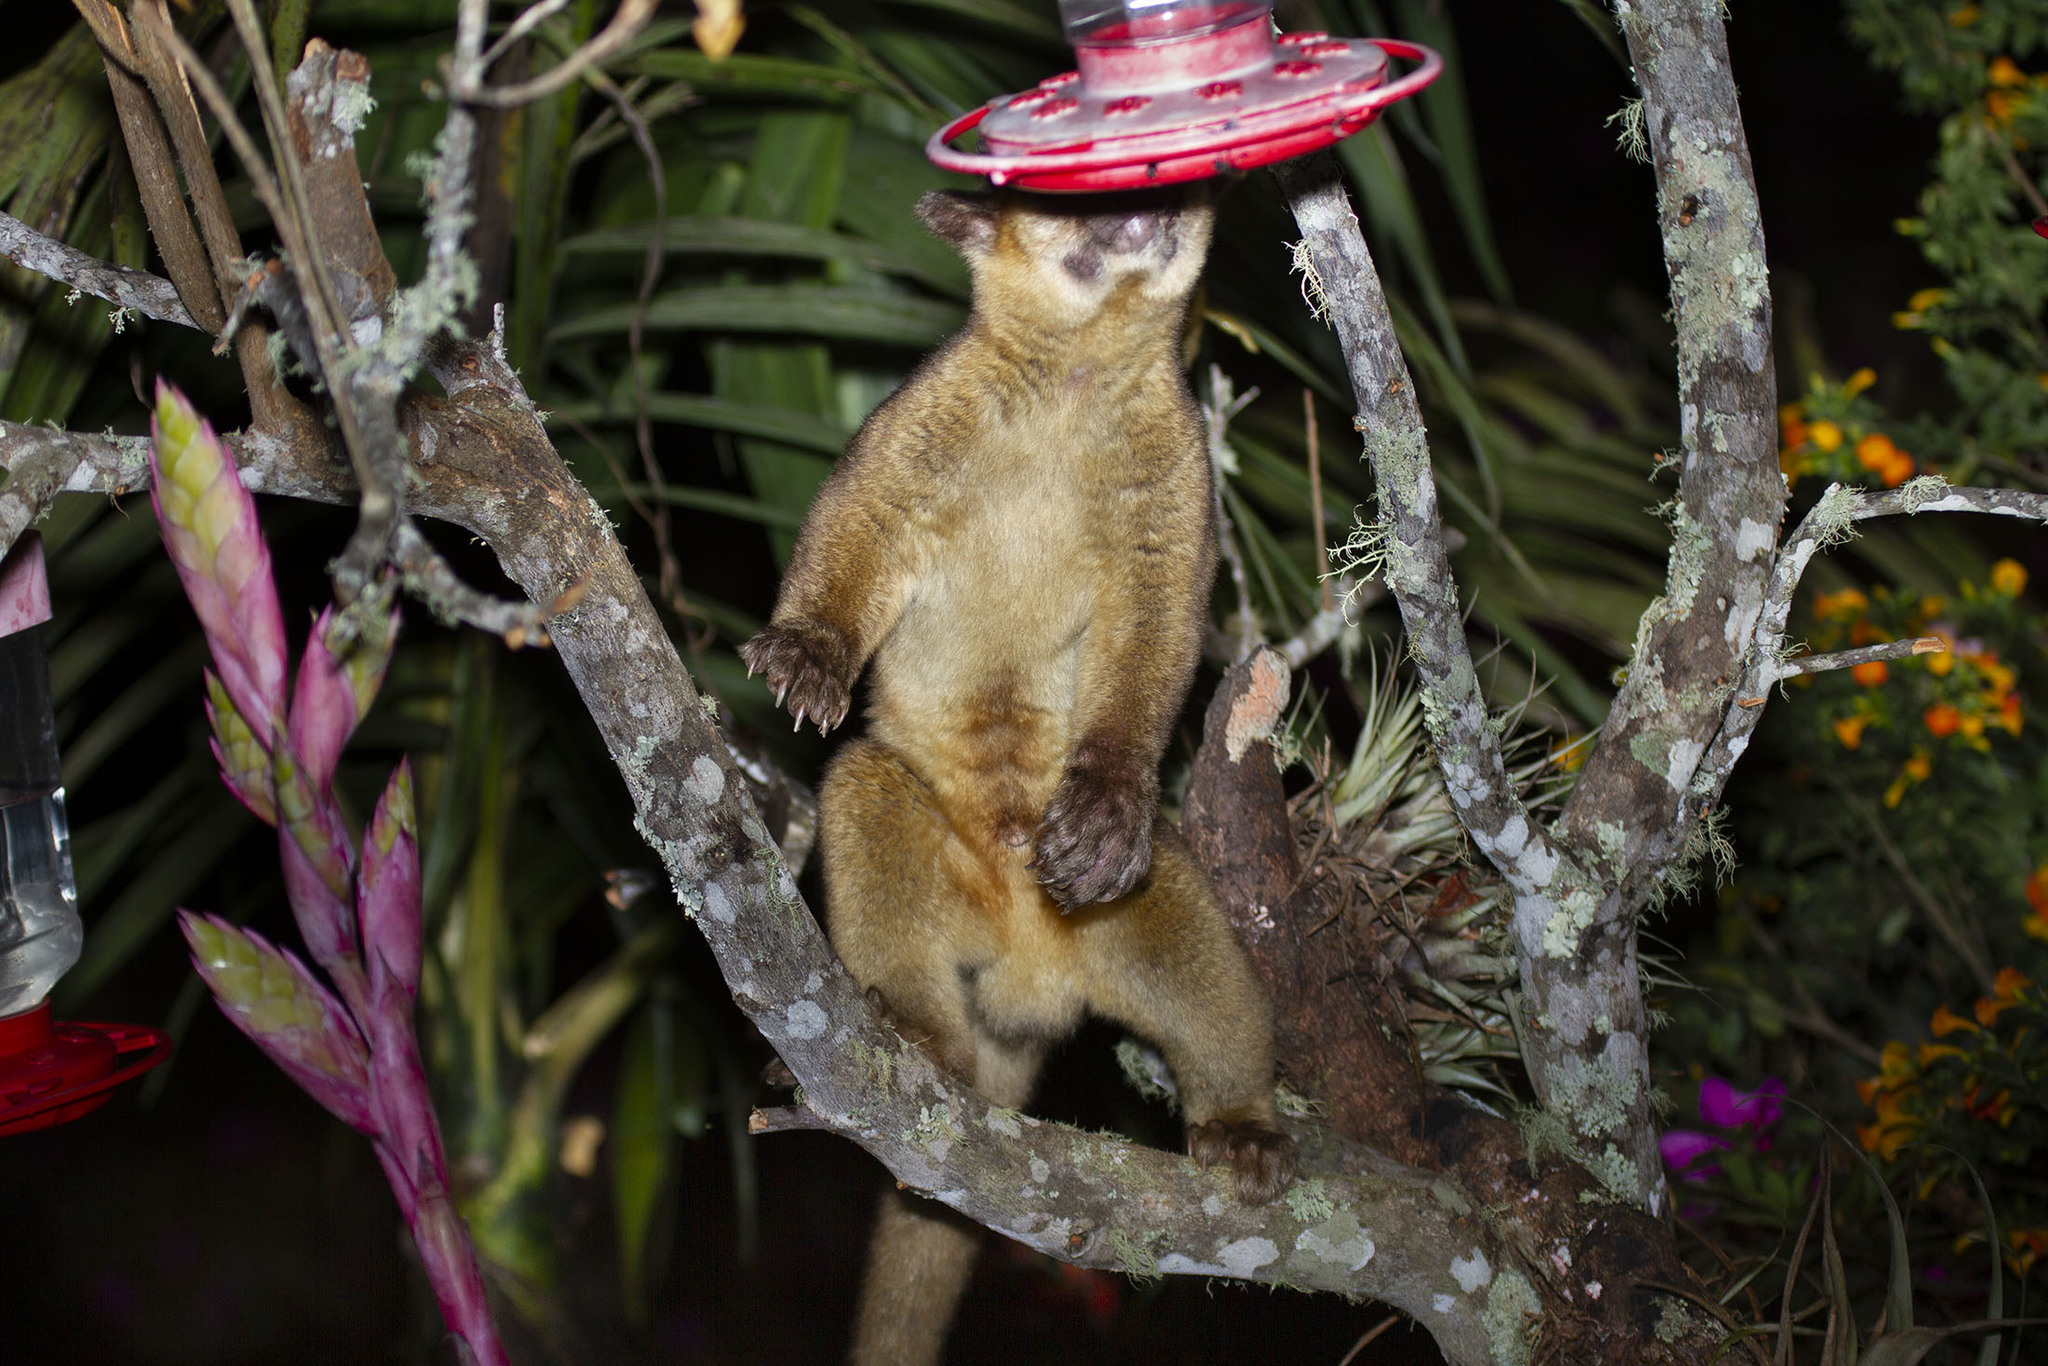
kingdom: Animalia
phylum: Chordata
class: Mammalia
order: Carnivora
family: Procyonidae
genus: Potos
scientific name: Potos flavus
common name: Kinkajou
